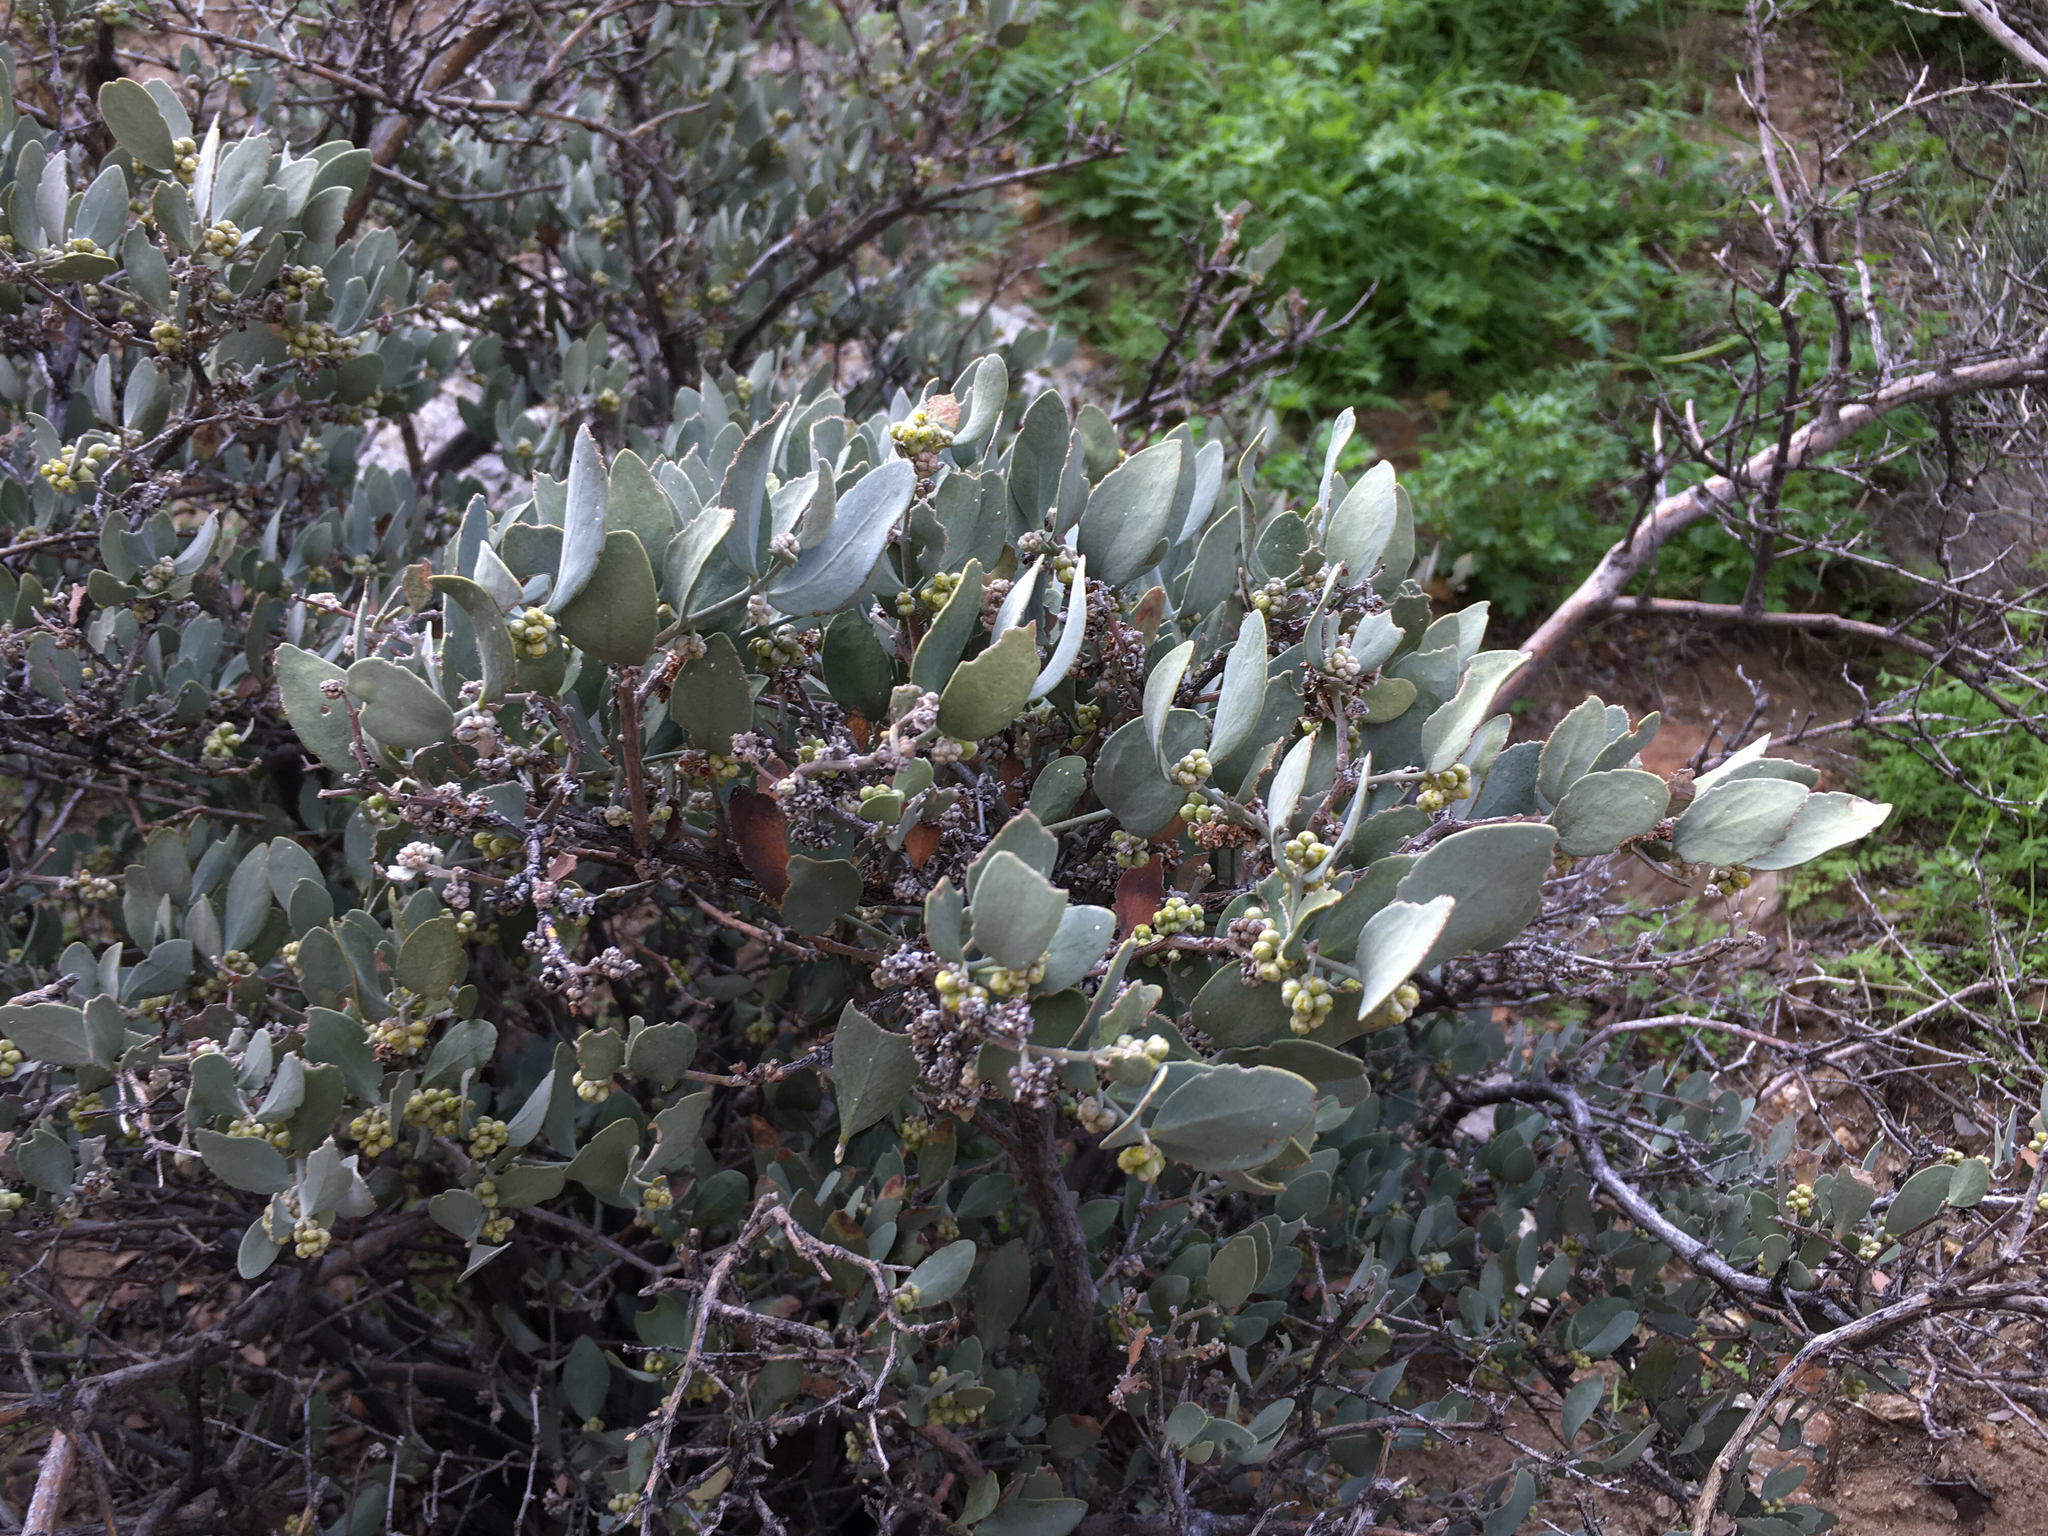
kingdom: Plantae
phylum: Tracheophyta
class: Magnoliopsida
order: Caryophyllales
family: Simmondsiaceae
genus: Simmondsia
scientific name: Simmondsia chinensis
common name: Jojoba
